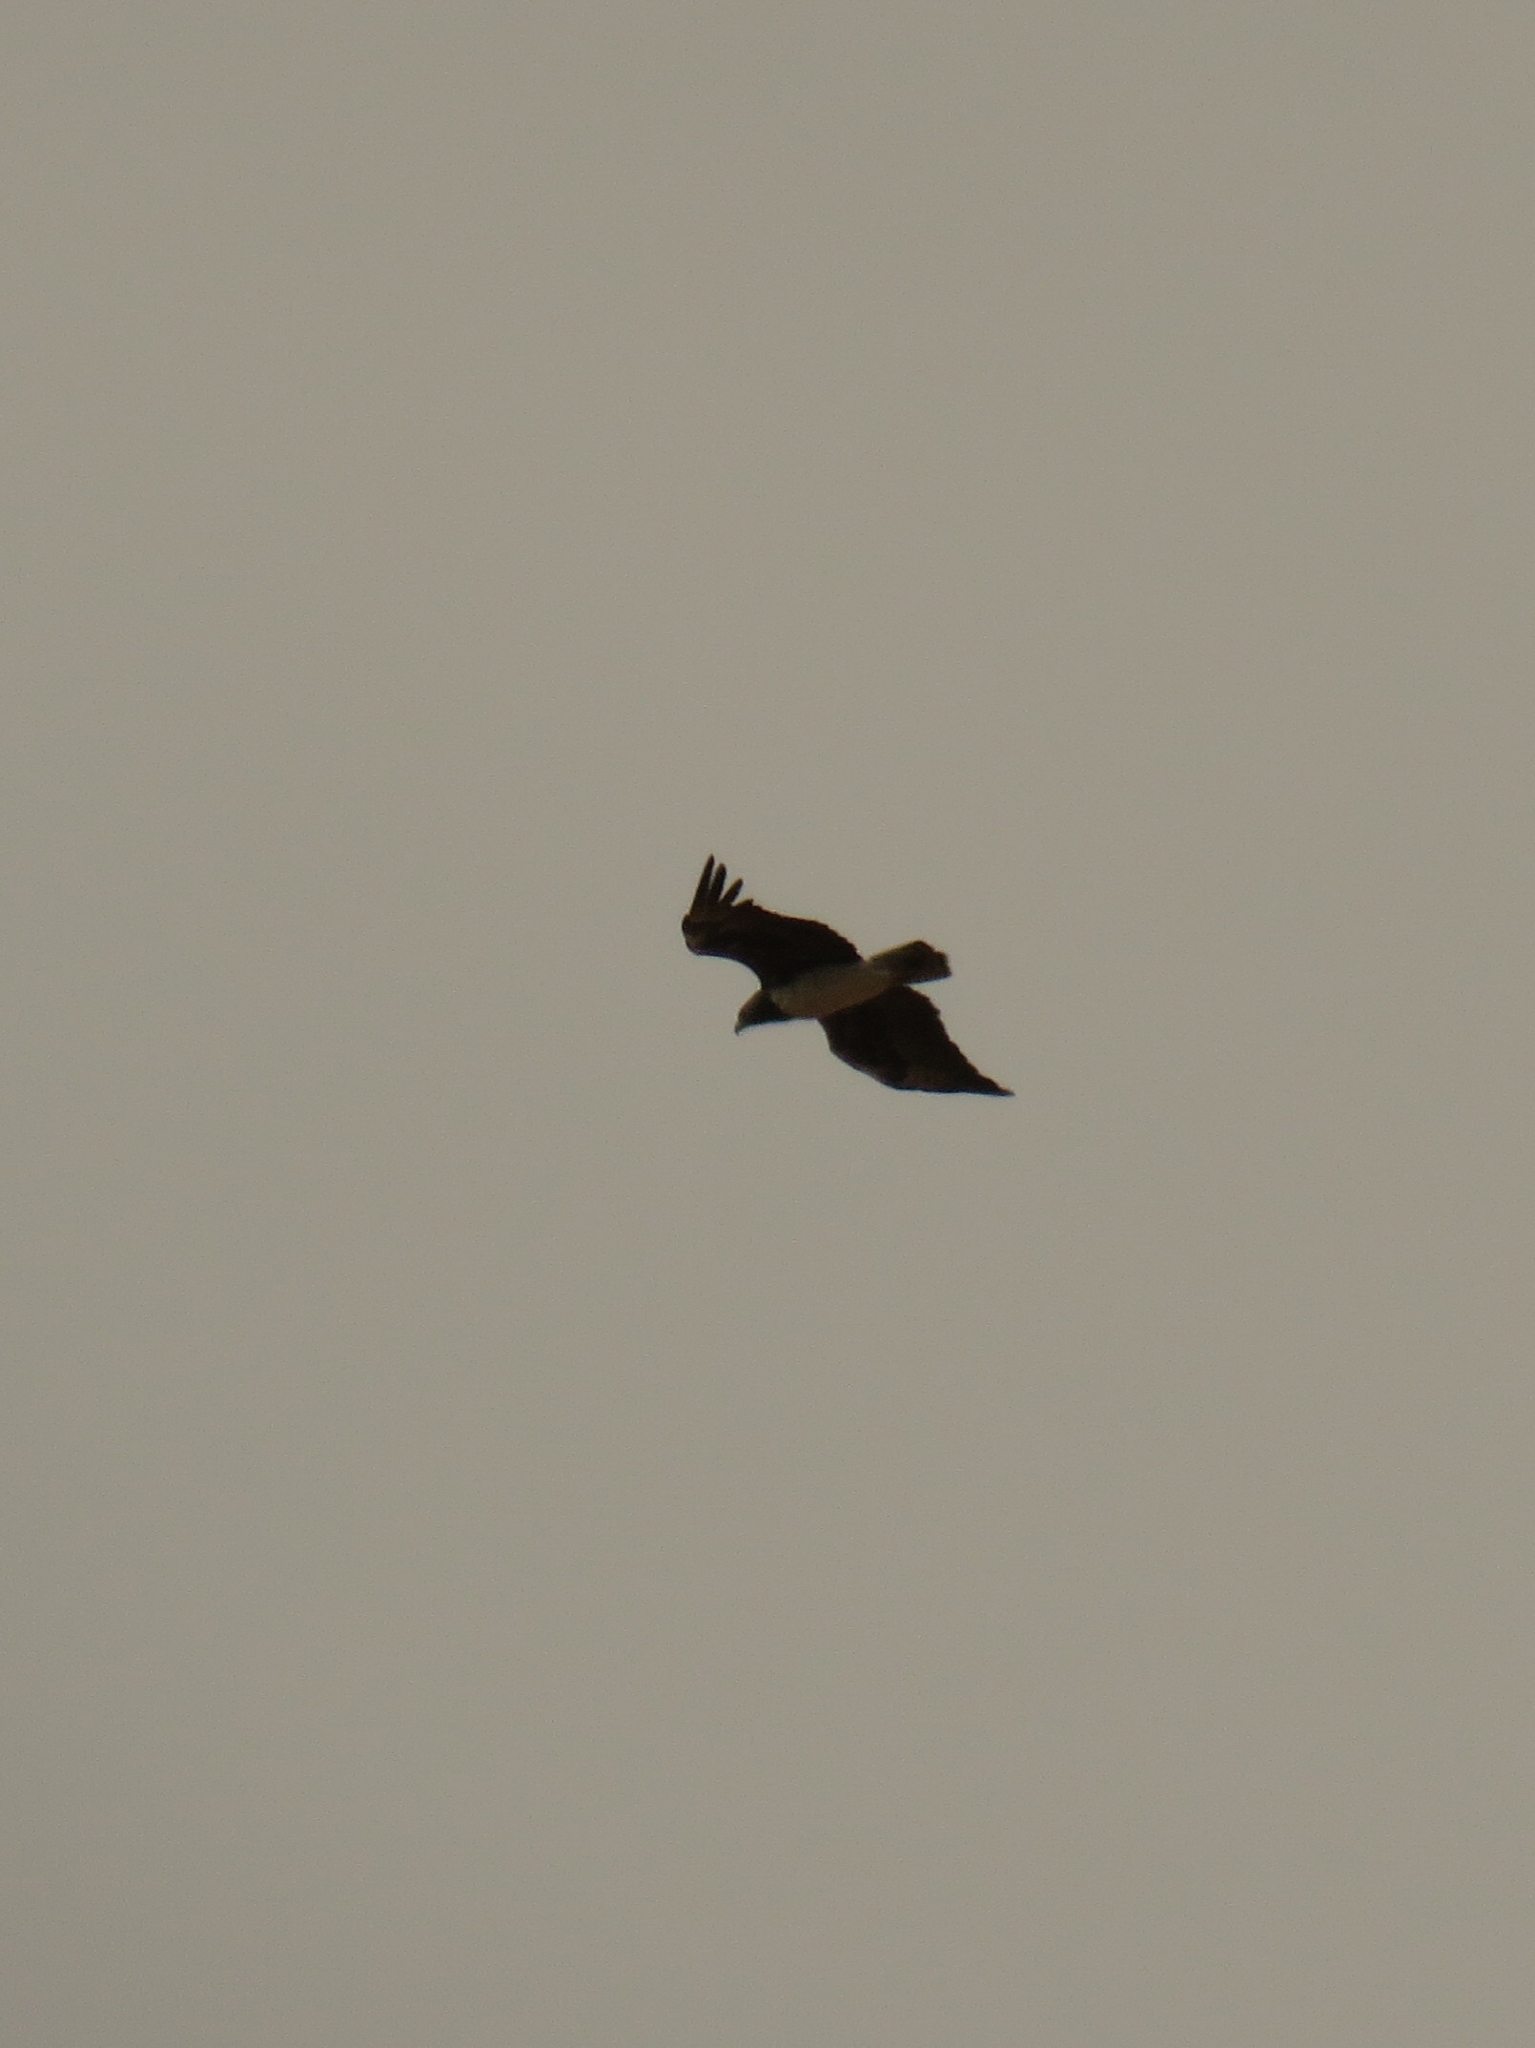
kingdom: Animalia
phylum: Chordata
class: Aves
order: Accipitriformes
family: Accipitridae
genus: Polemaetus
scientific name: Polemaetus bellicosus
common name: Martial eagle
